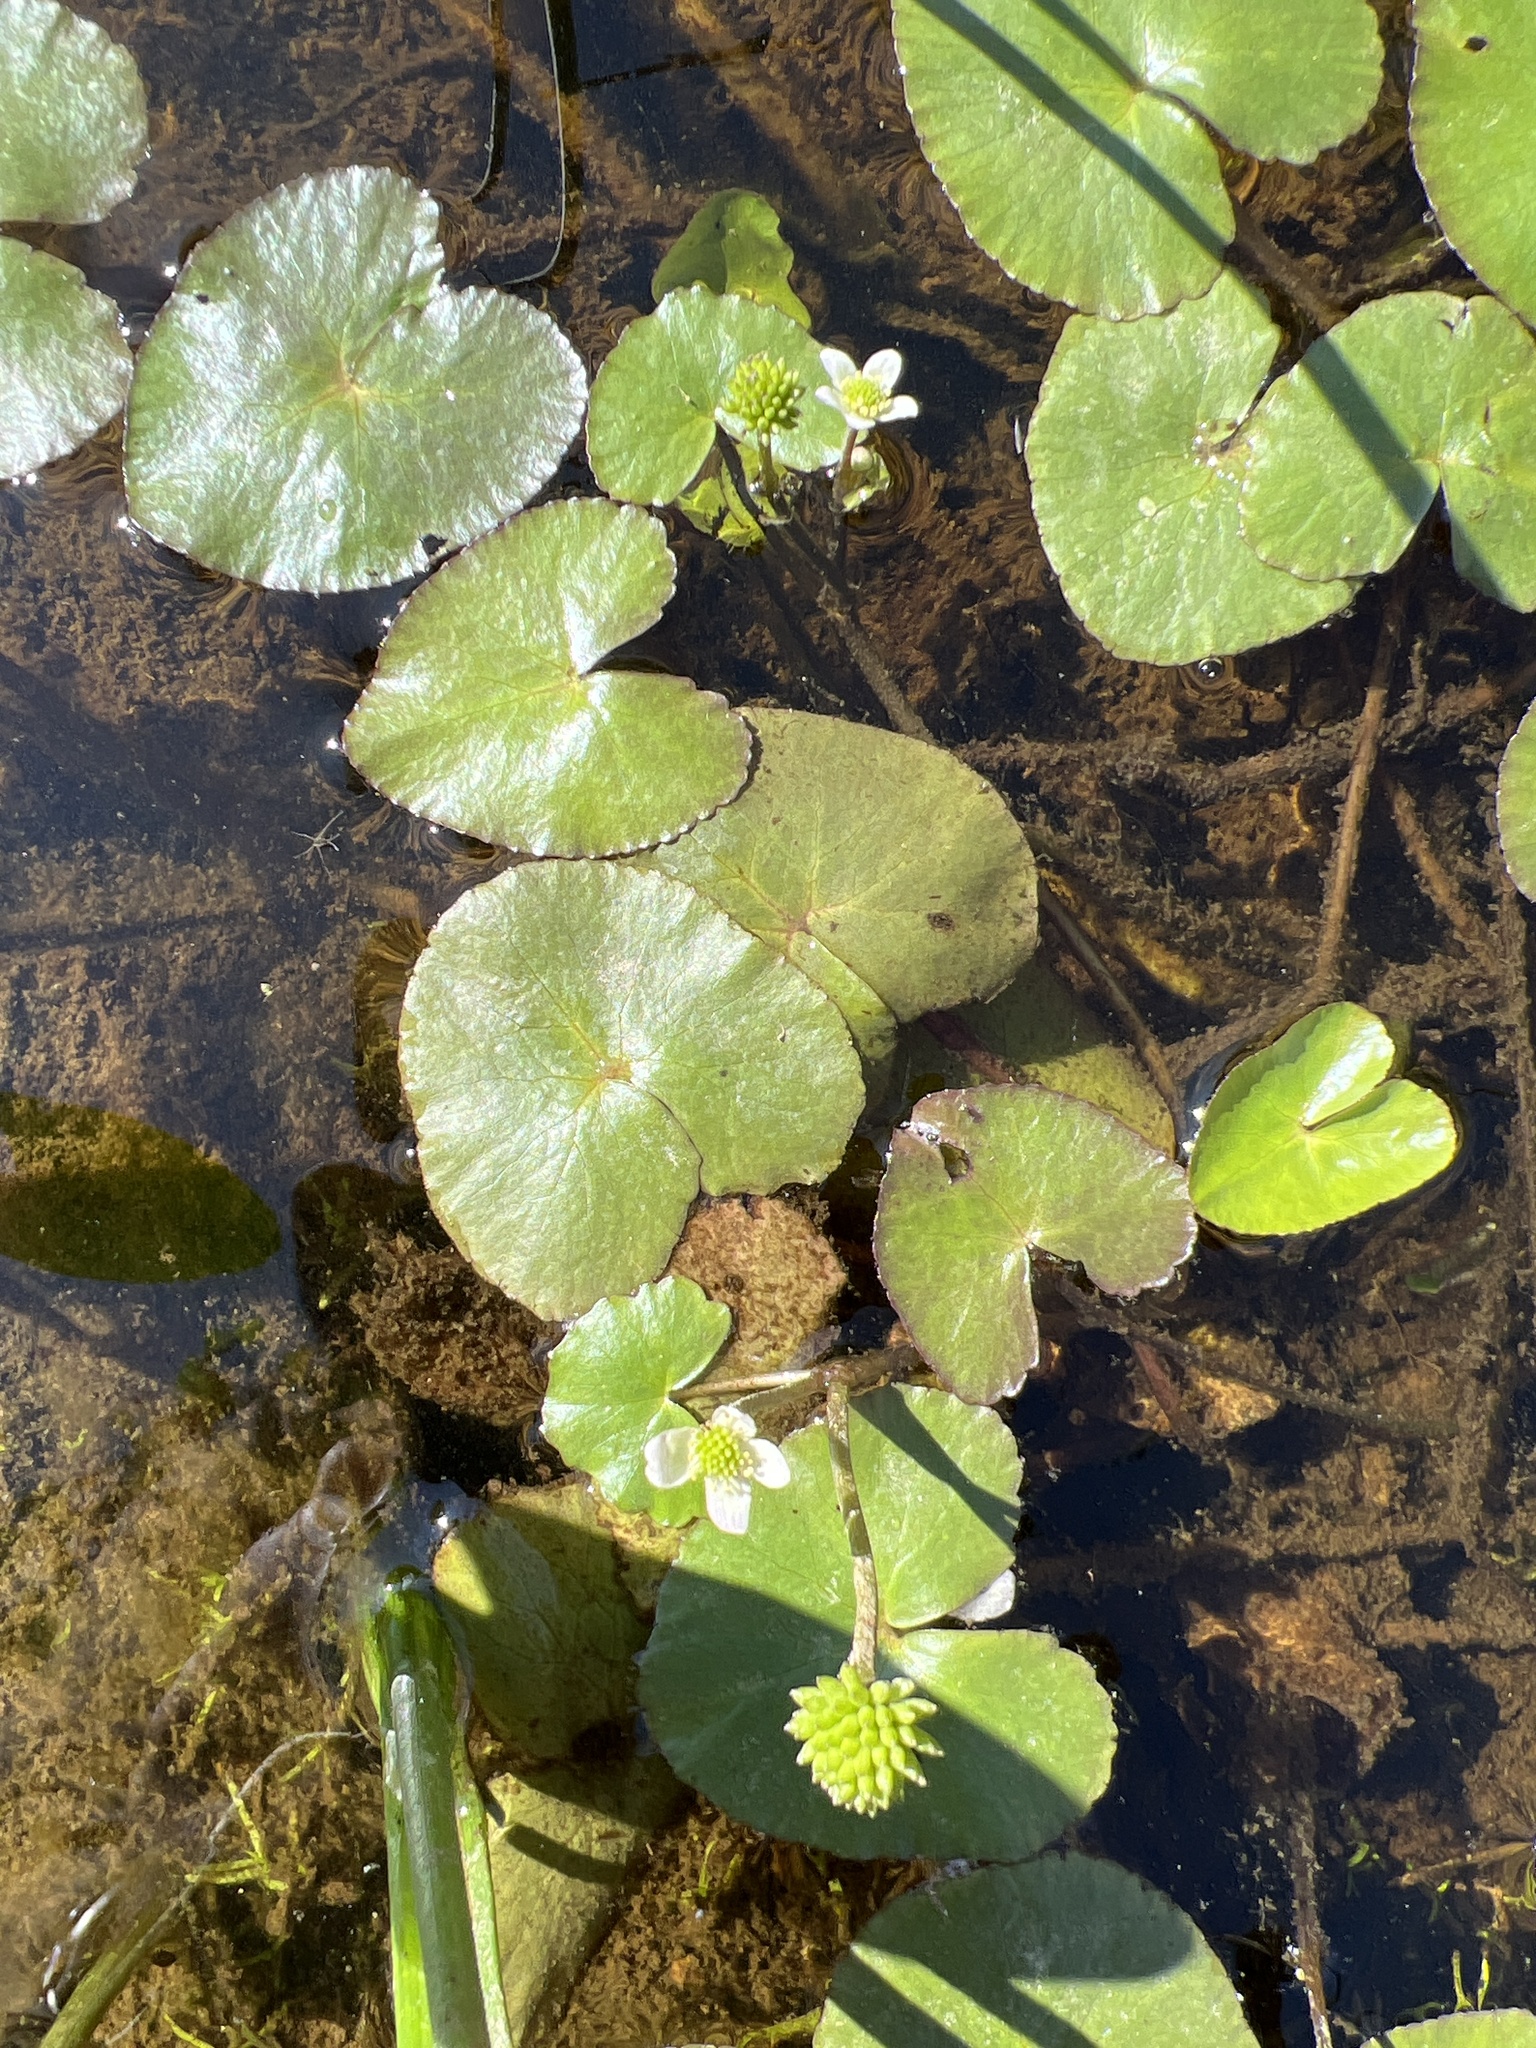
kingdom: Plantae
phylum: Tracheophyta
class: Magnoliopsida
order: Ranunculales
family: Ranunculaceae
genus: Caltha
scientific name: Caltha natans
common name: Floating marsh marigold
